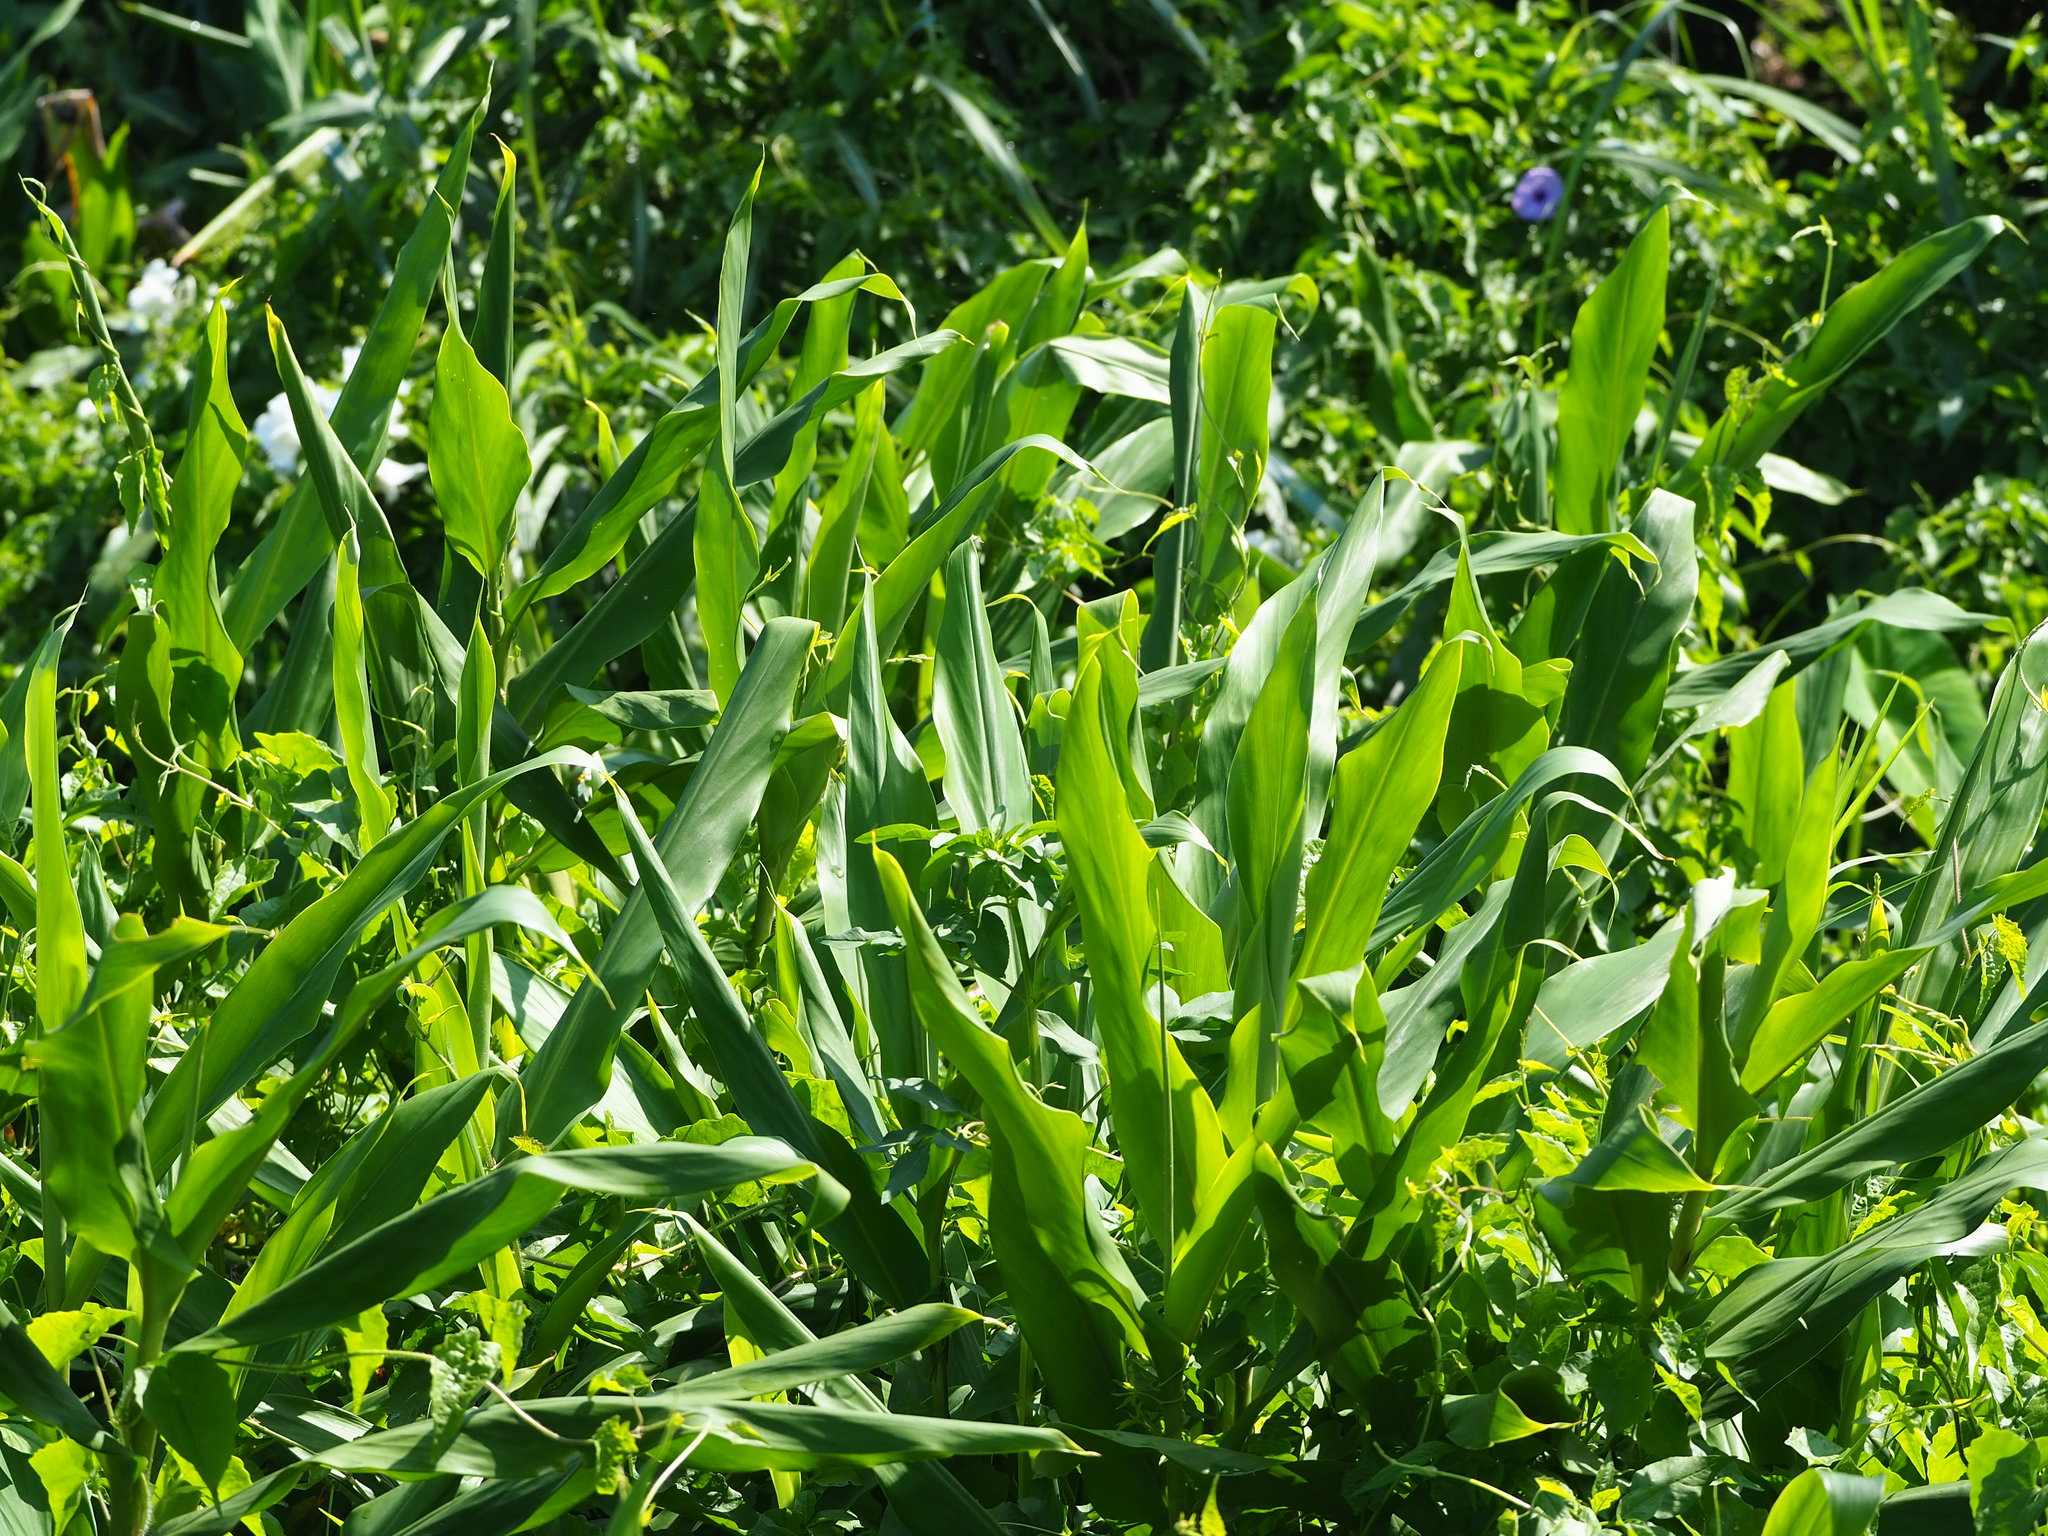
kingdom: Plantae
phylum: Tracheophyta
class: Liliopsida
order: Zingiberales
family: Zingiberaceae
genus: Hedychium
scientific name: Hedychium coronarium
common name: White garland-lily
